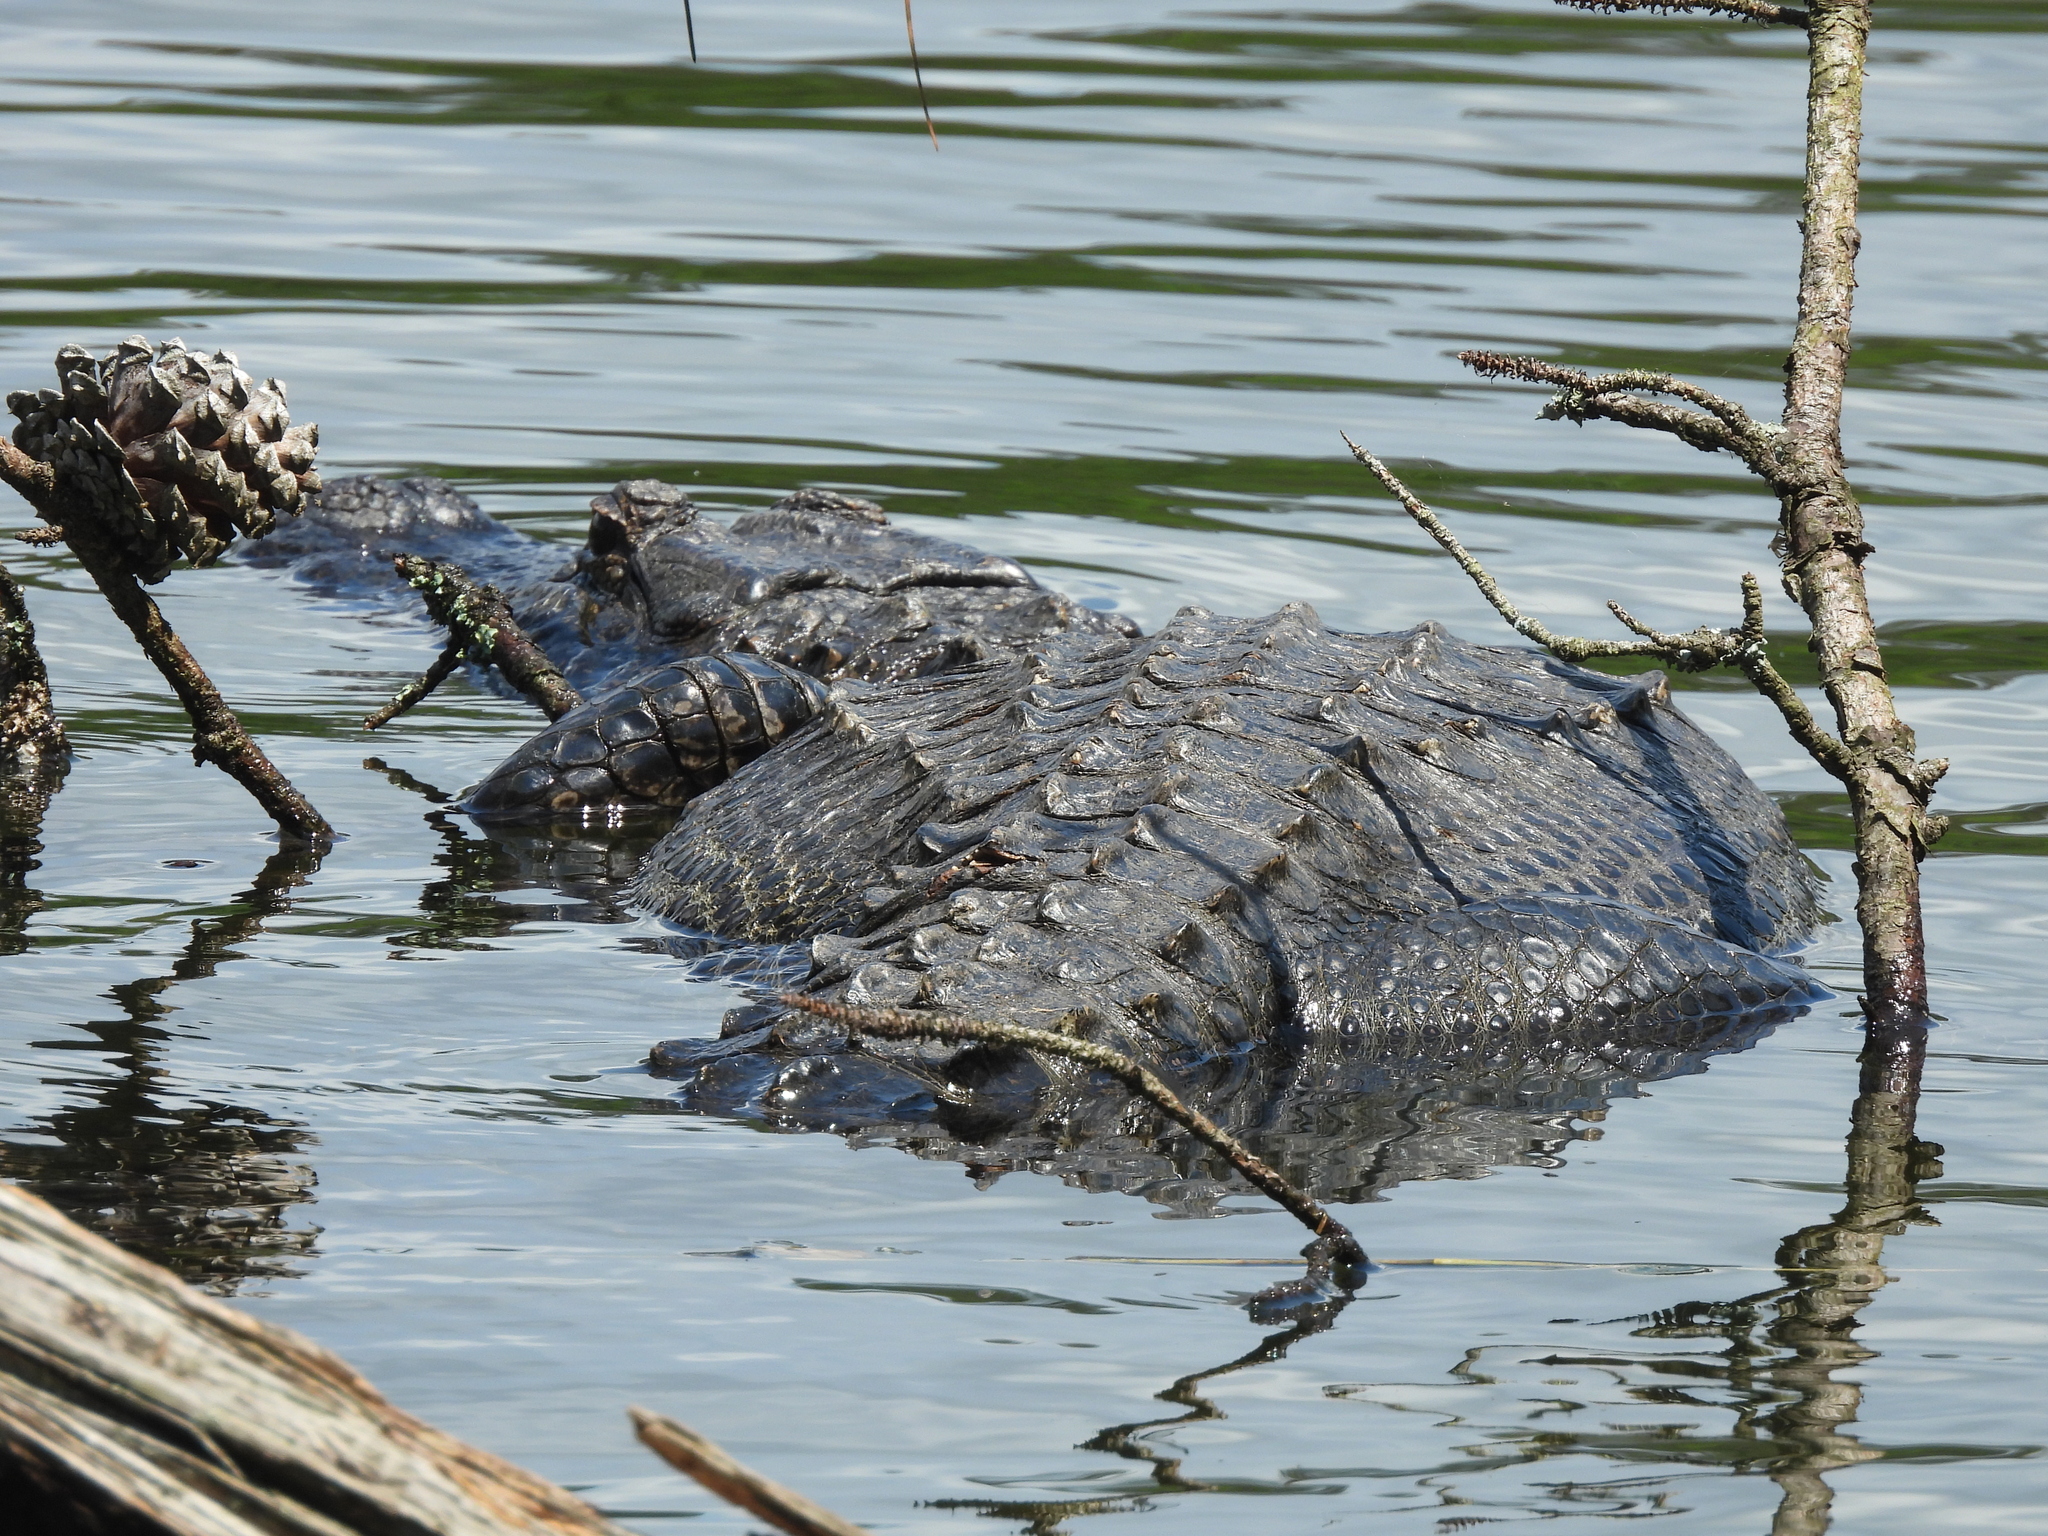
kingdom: Animalia
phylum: Chordata
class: Crocodylia
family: Alligatoridae
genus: Alligator
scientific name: Alligator mississippiensis
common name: American alligator
